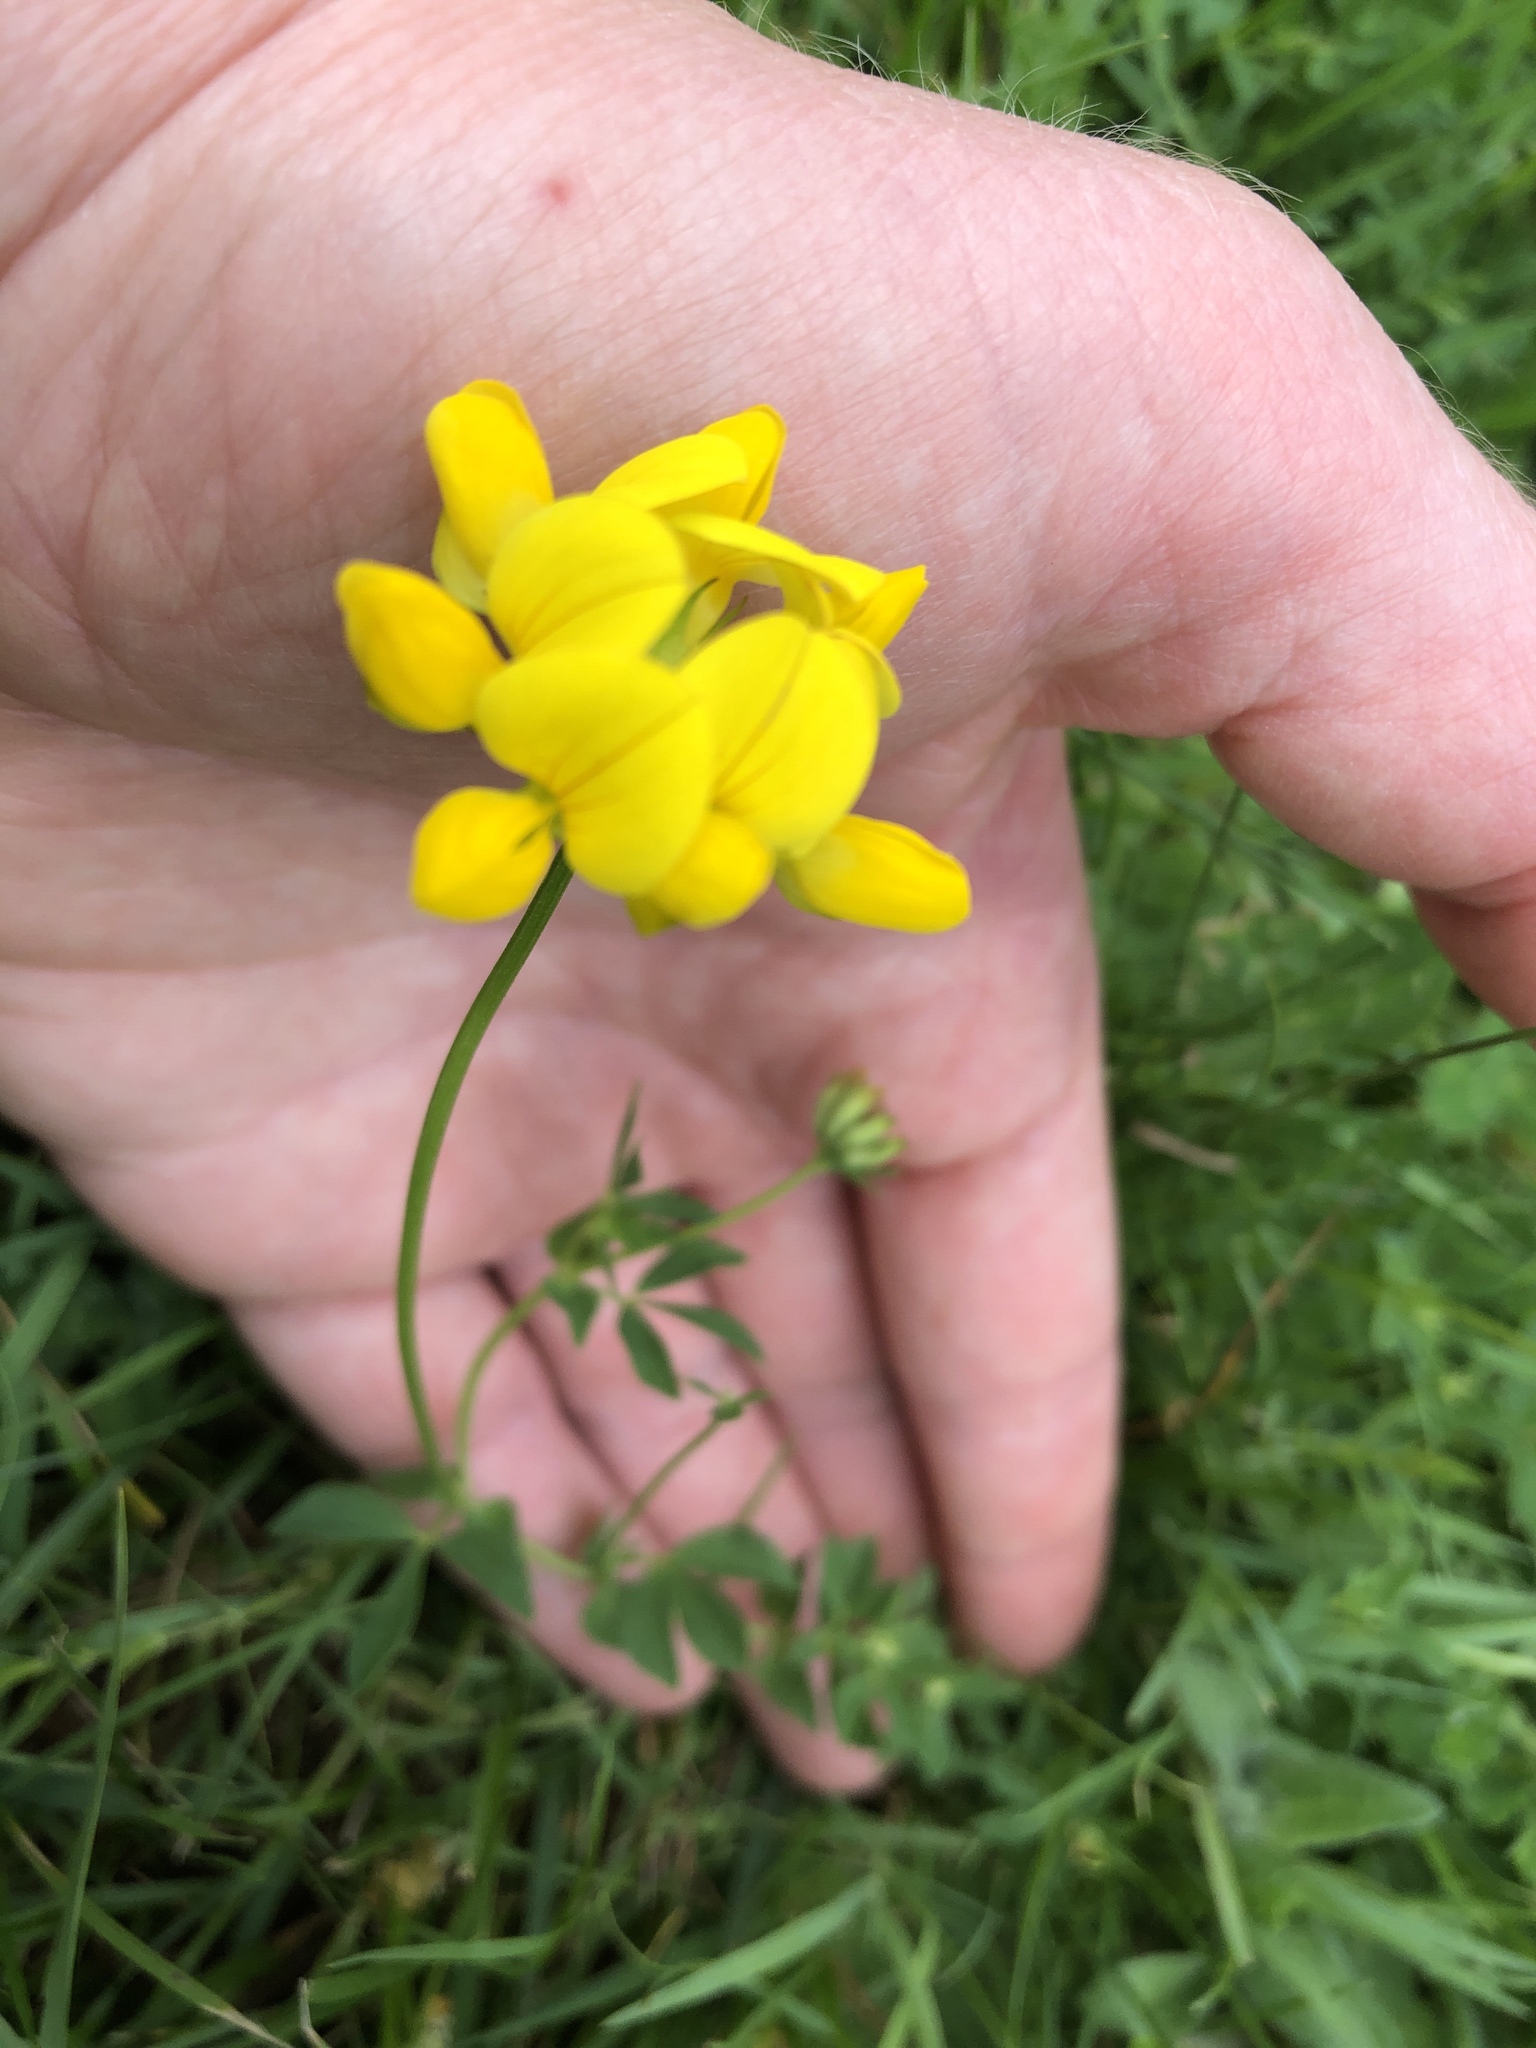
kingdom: Plantae
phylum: Tracheophyta
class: Magnoliopsida
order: Fabales
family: Fabaceae
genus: Lotus
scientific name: Lotus corniculatus
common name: Common bird's-foot-trefoil
